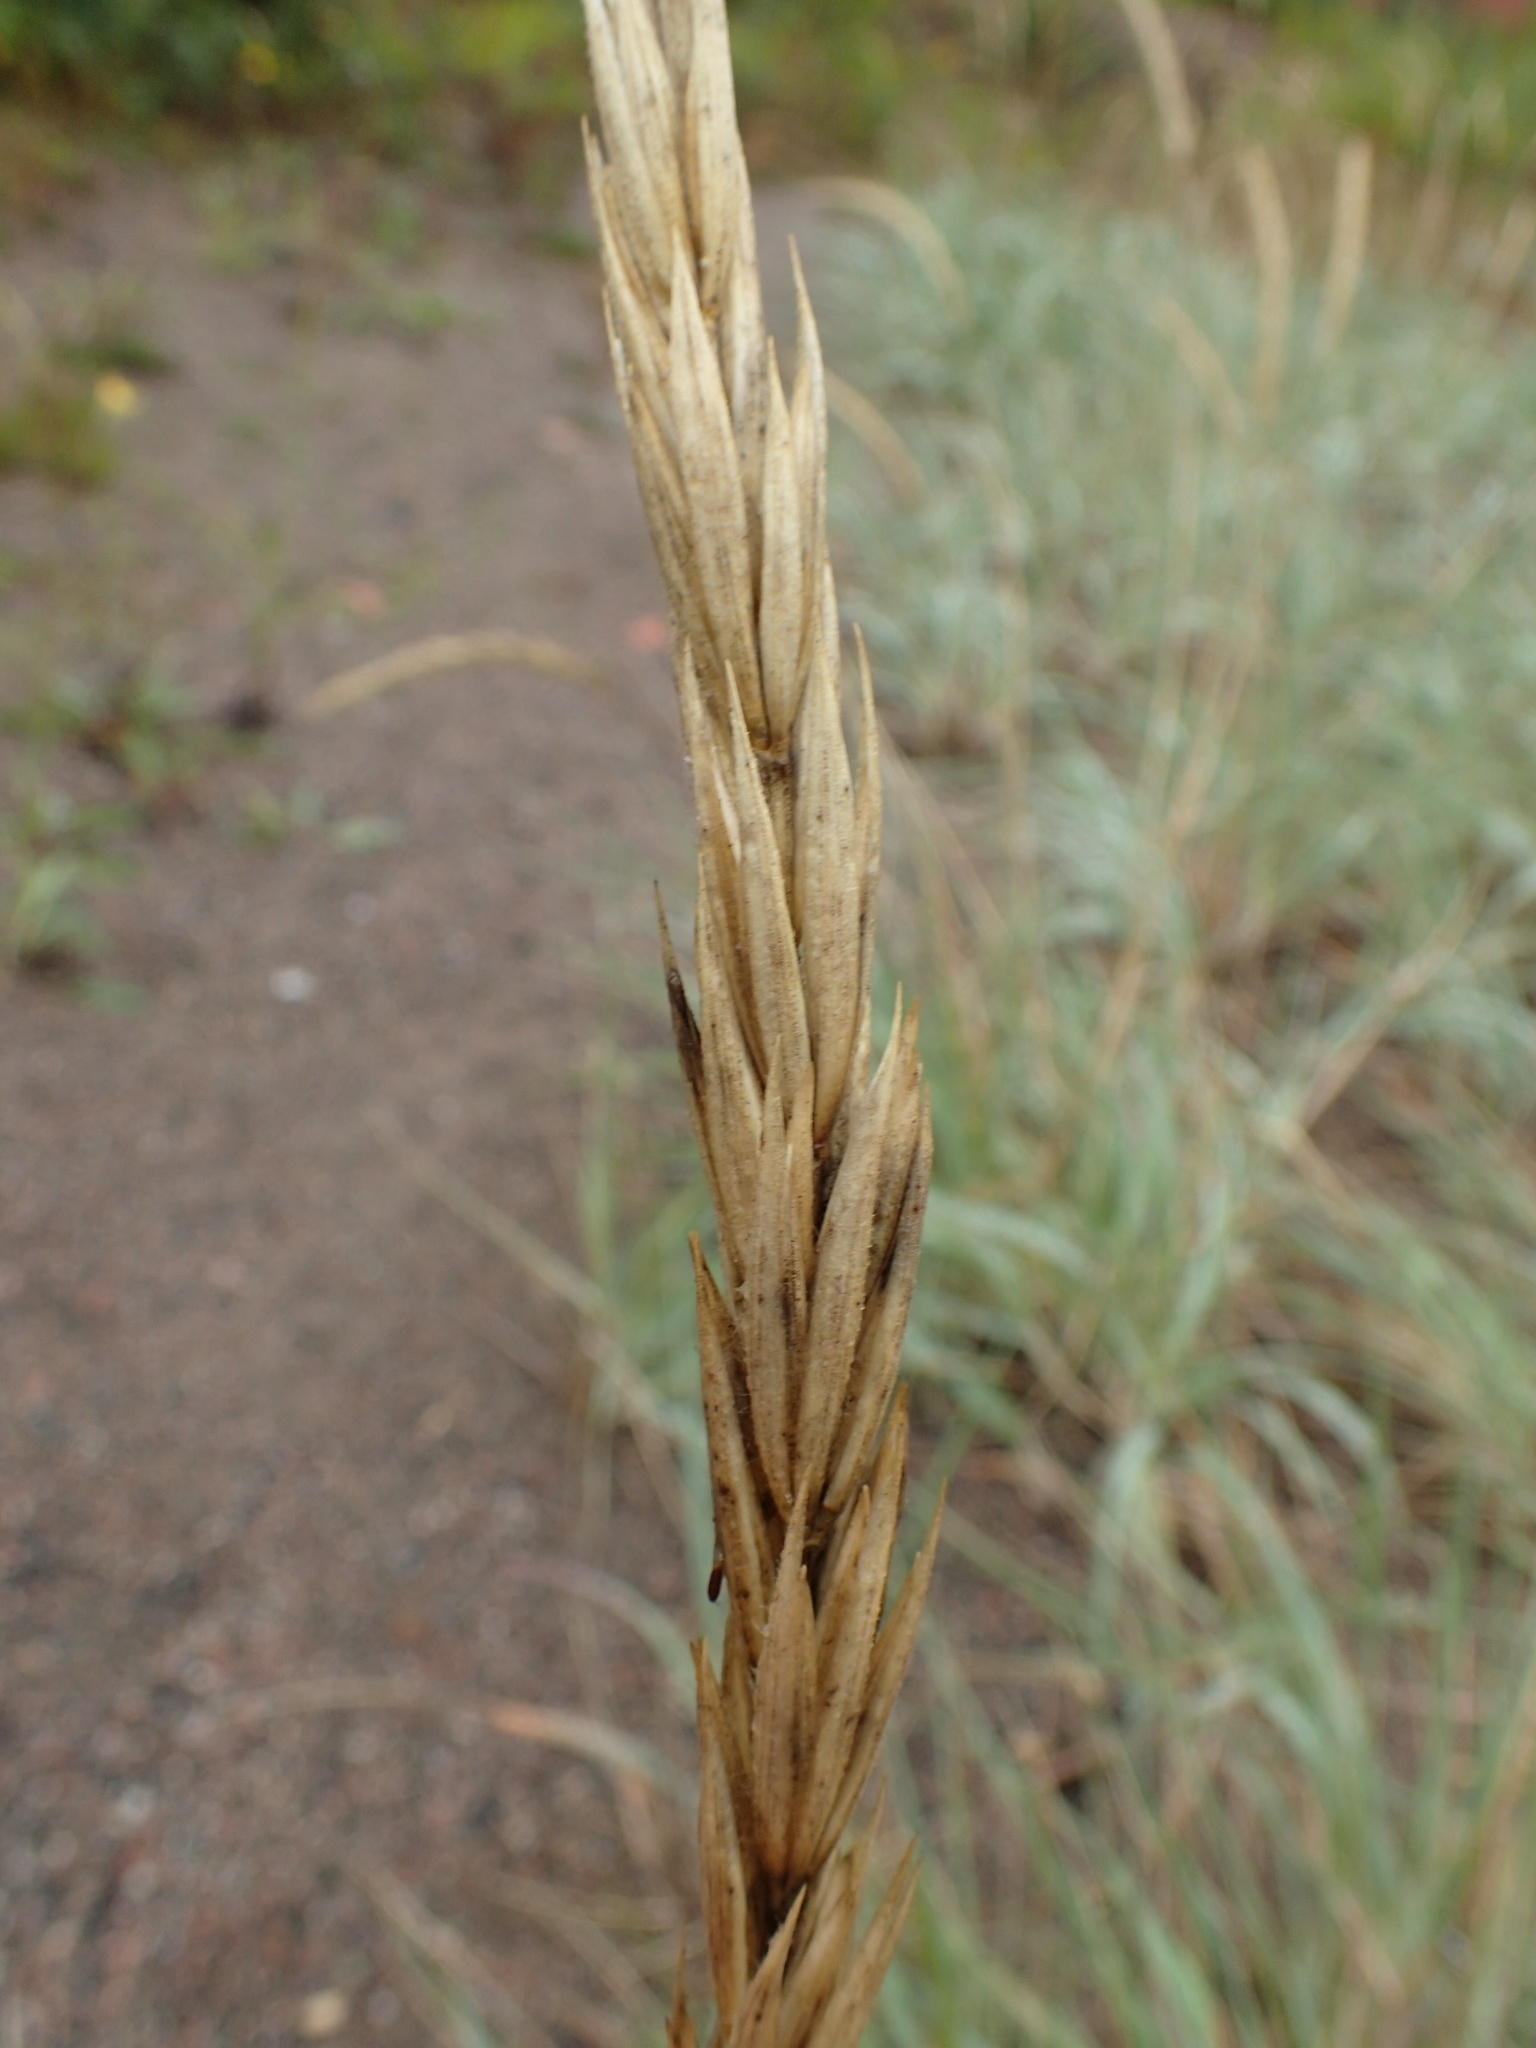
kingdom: Plantae
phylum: Tracheophyta
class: Liliopsida
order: Poales
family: Poaceae
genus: Leymus
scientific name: Leymus mollis
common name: American dune grass
